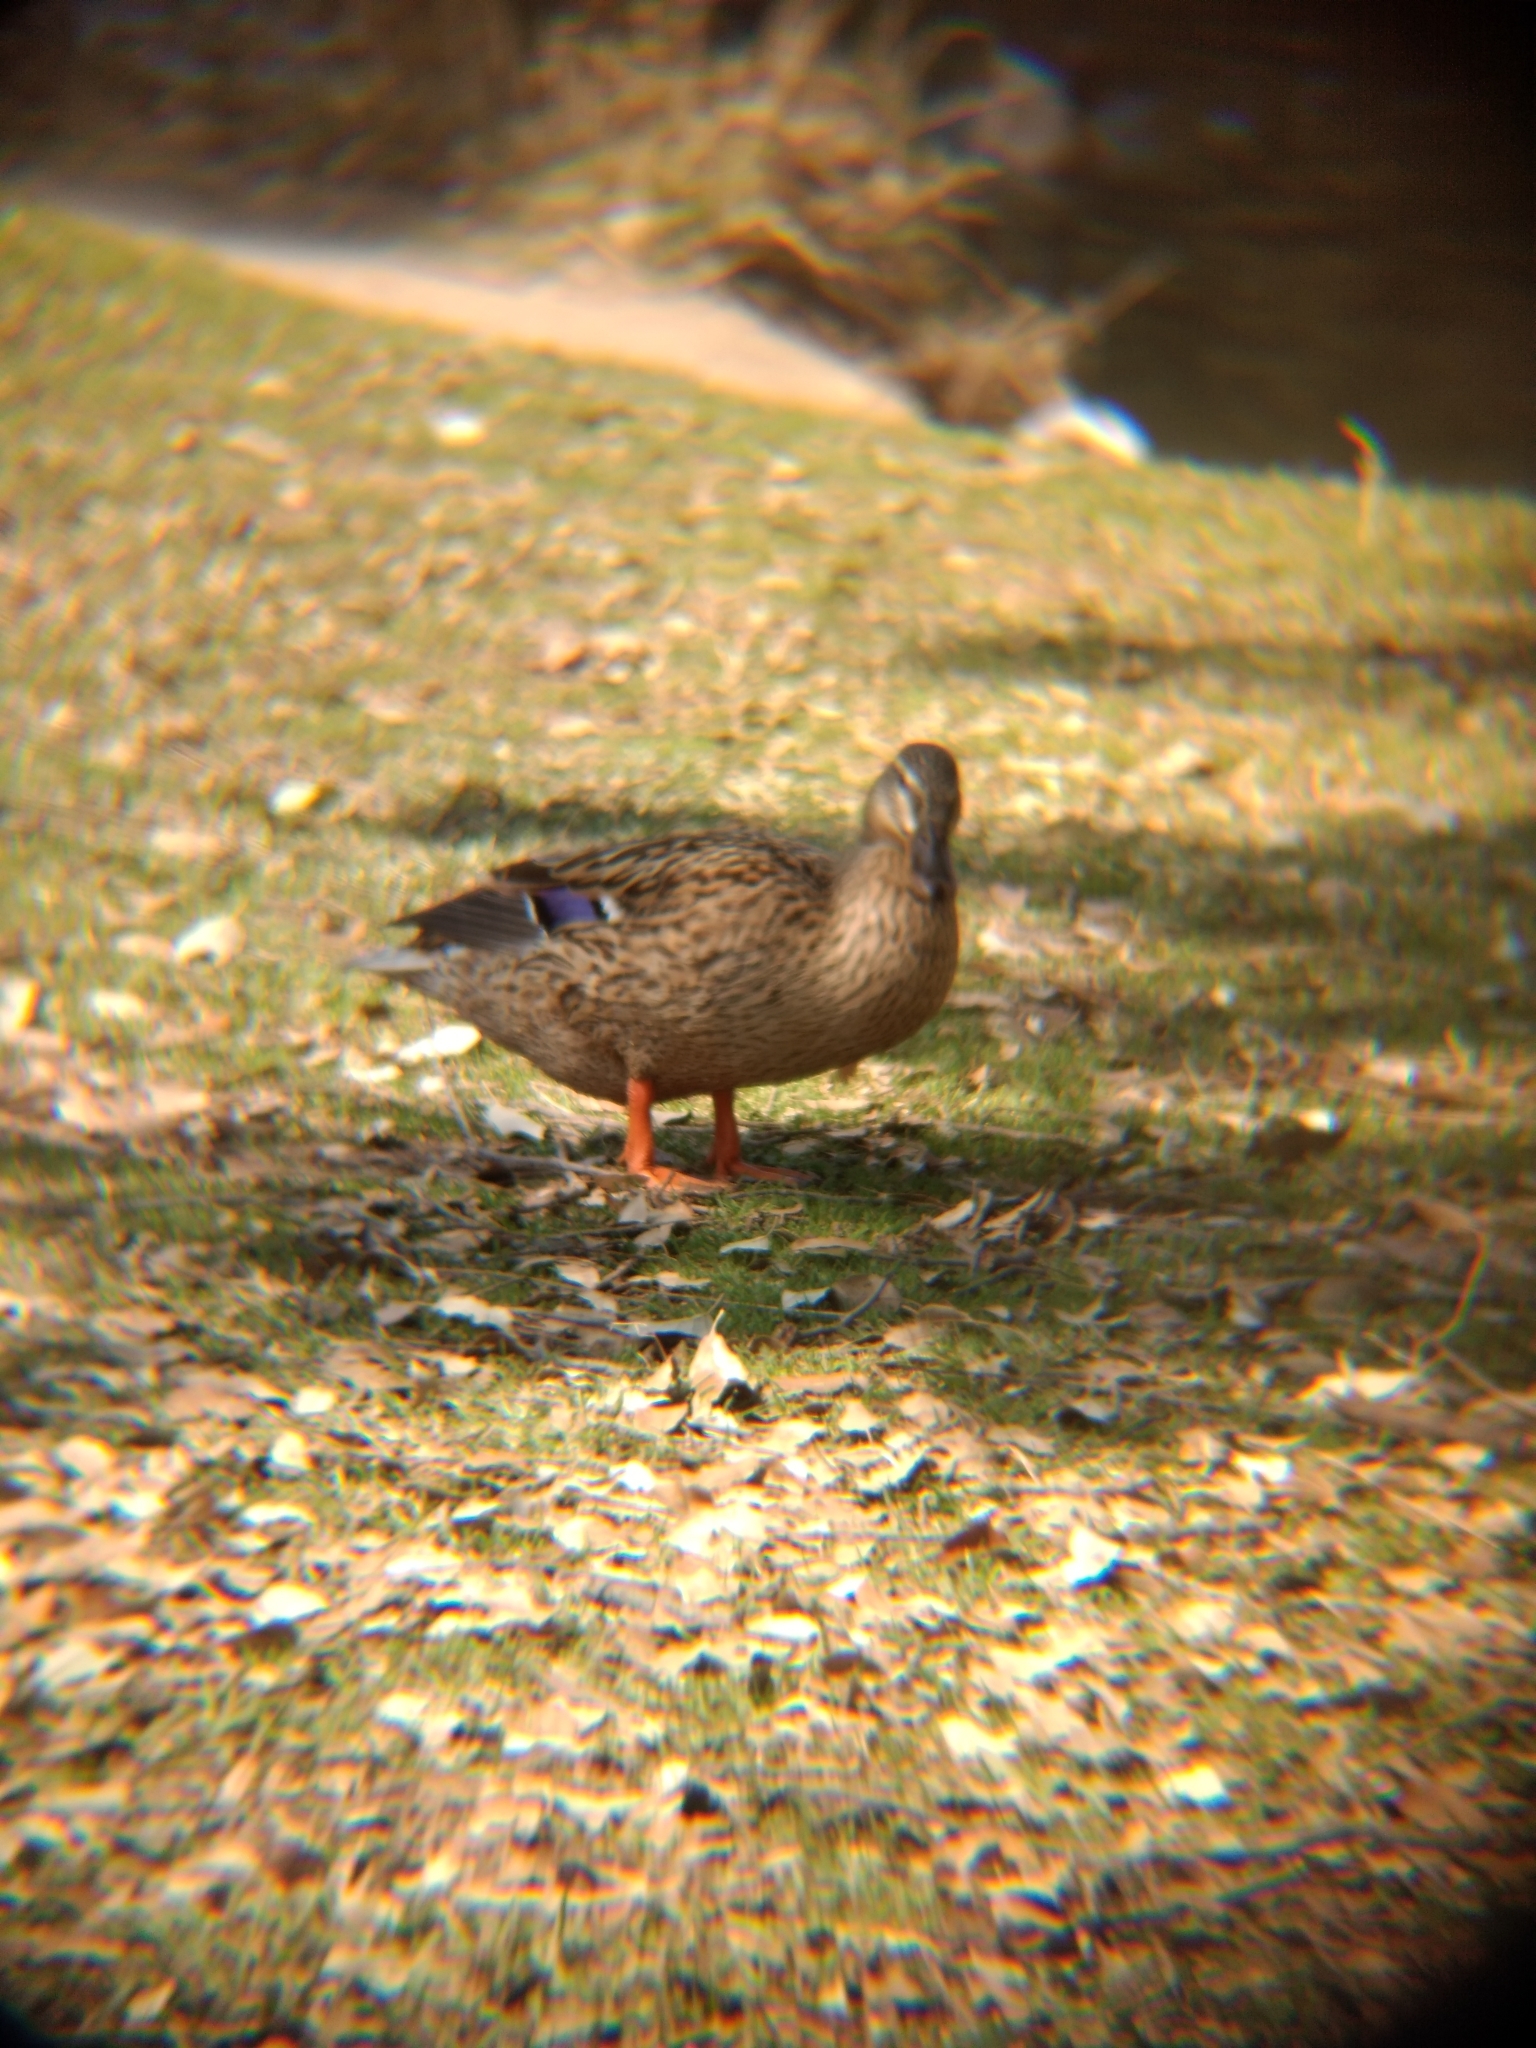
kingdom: Animalia
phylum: Chordata
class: Aves
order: Anseriformes
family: Anatidae
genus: Anas
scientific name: Anas platyrhynchos
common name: Mallard
